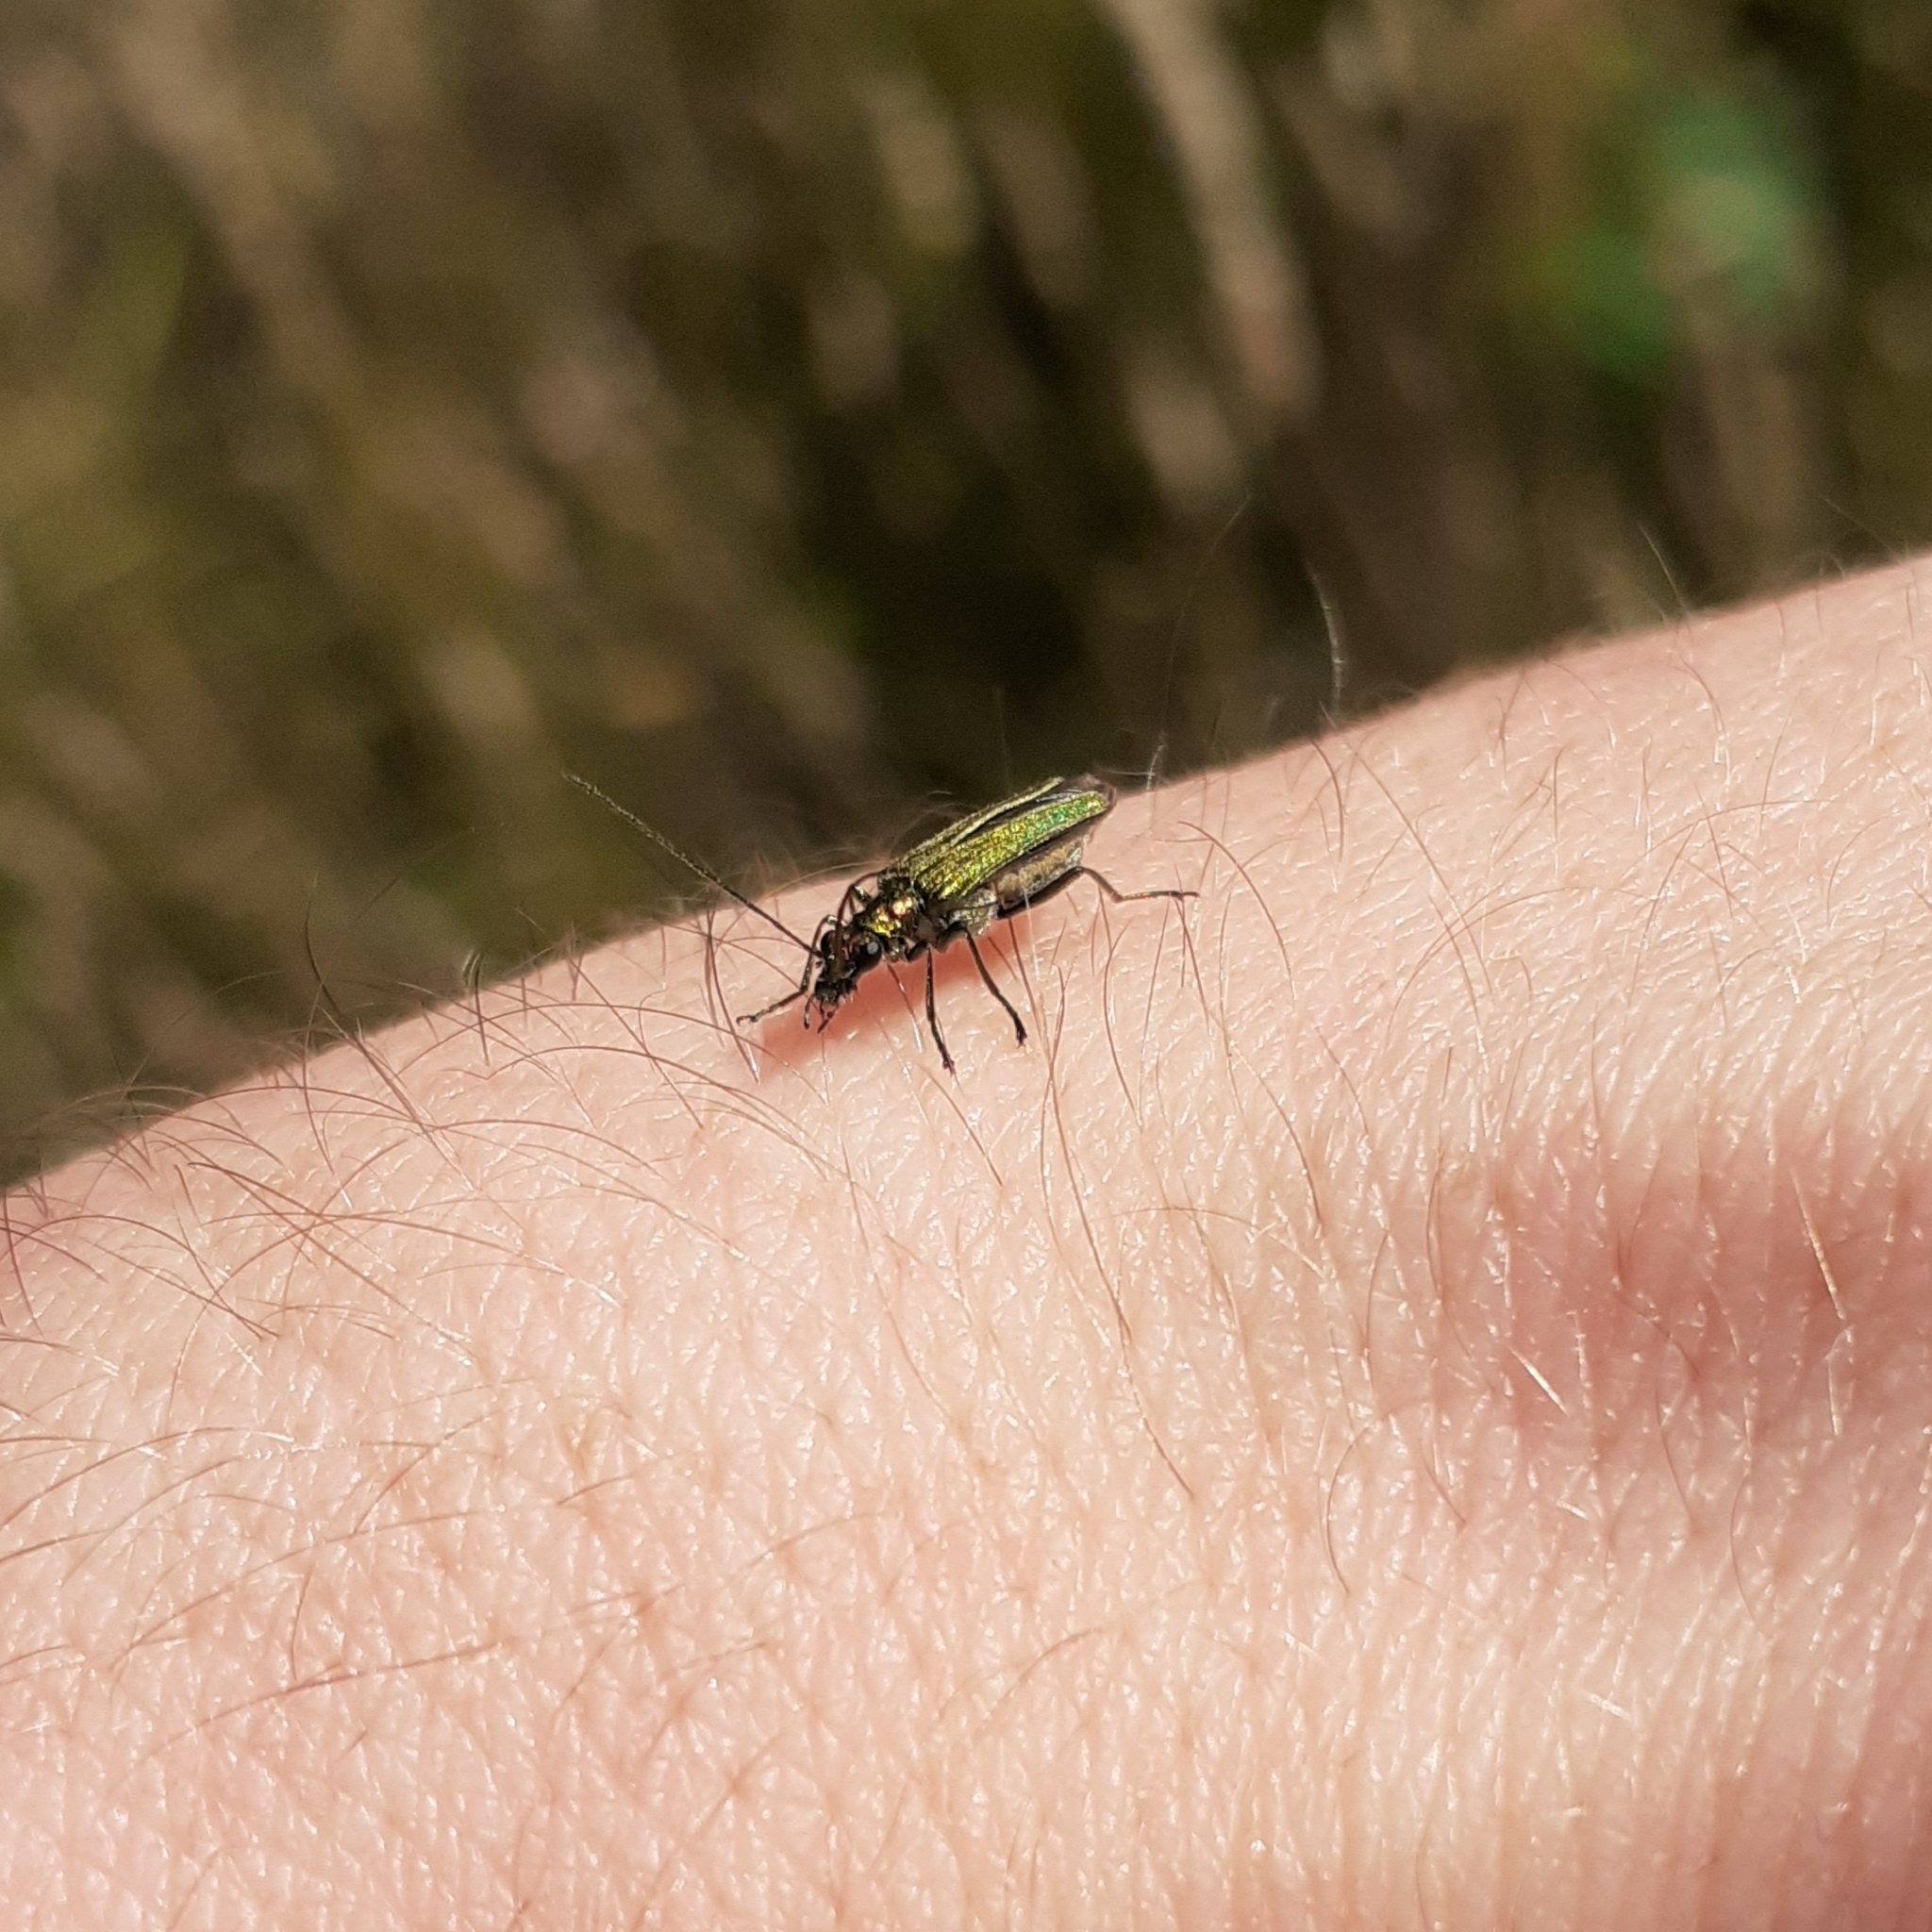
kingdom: Animalia
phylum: Arthropoda
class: Insecta
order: Coleoptera
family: Oedemeridae
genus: Oedemera
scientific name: Oedemera nobilis
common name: Swollen-thighed beetle
